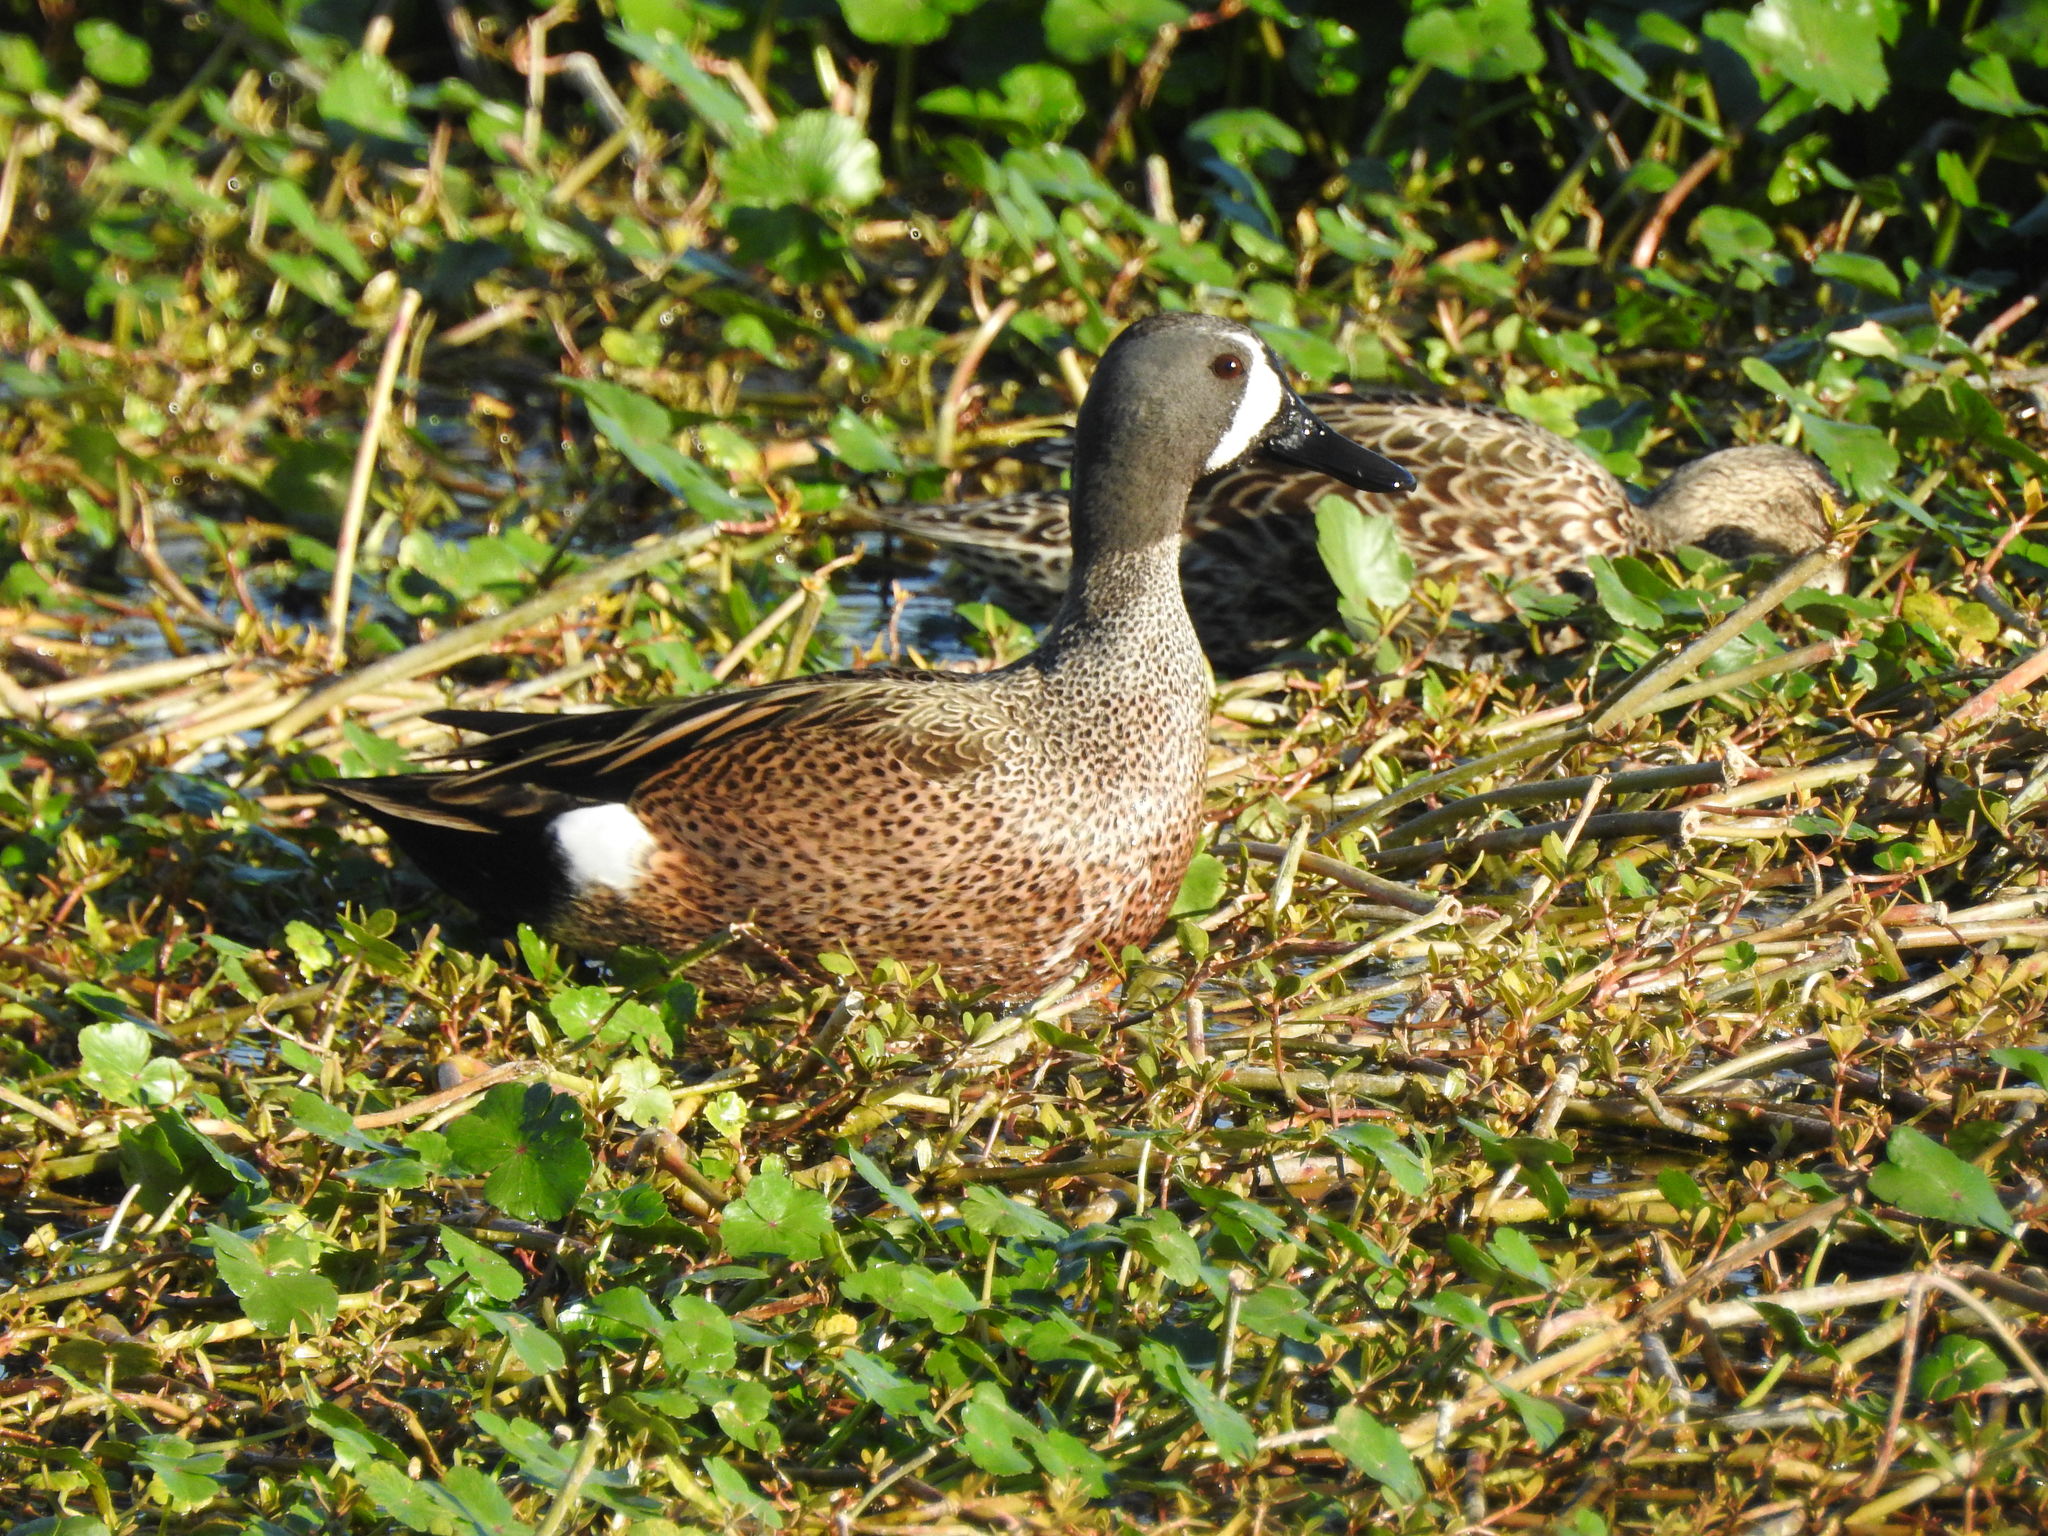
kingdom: Animalia
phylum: Chordata
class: Aves
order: Anseriformes
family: Anatidae
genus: Spatula
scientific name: Spatula discors
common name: Blue-winged teal
